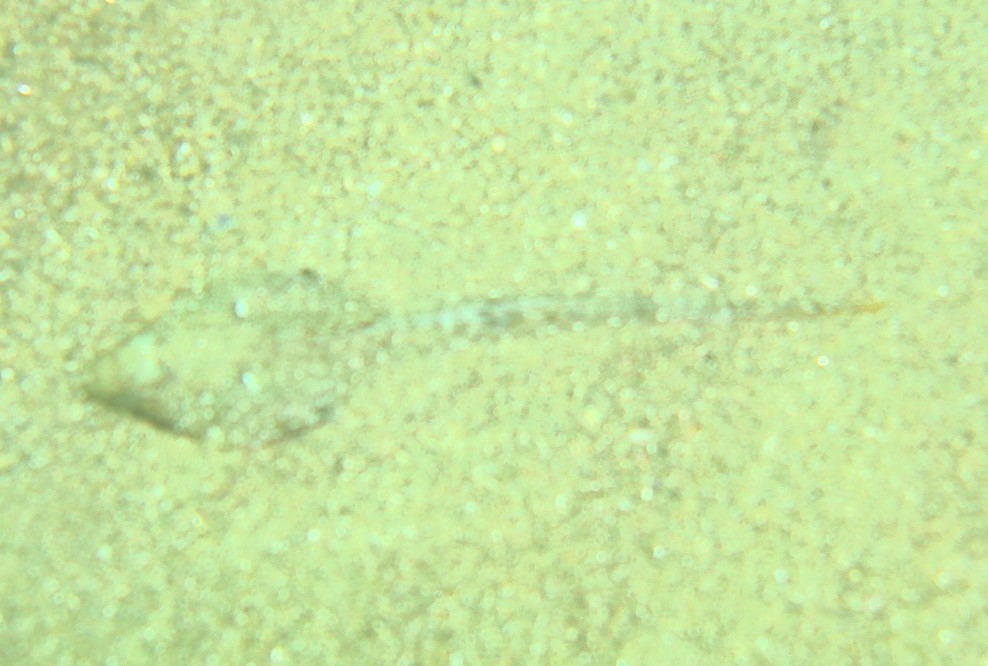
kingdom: Animalia
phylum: Chordata
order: Perciformes
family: Callionymidae
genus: Callionymus
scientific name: Callionymus
